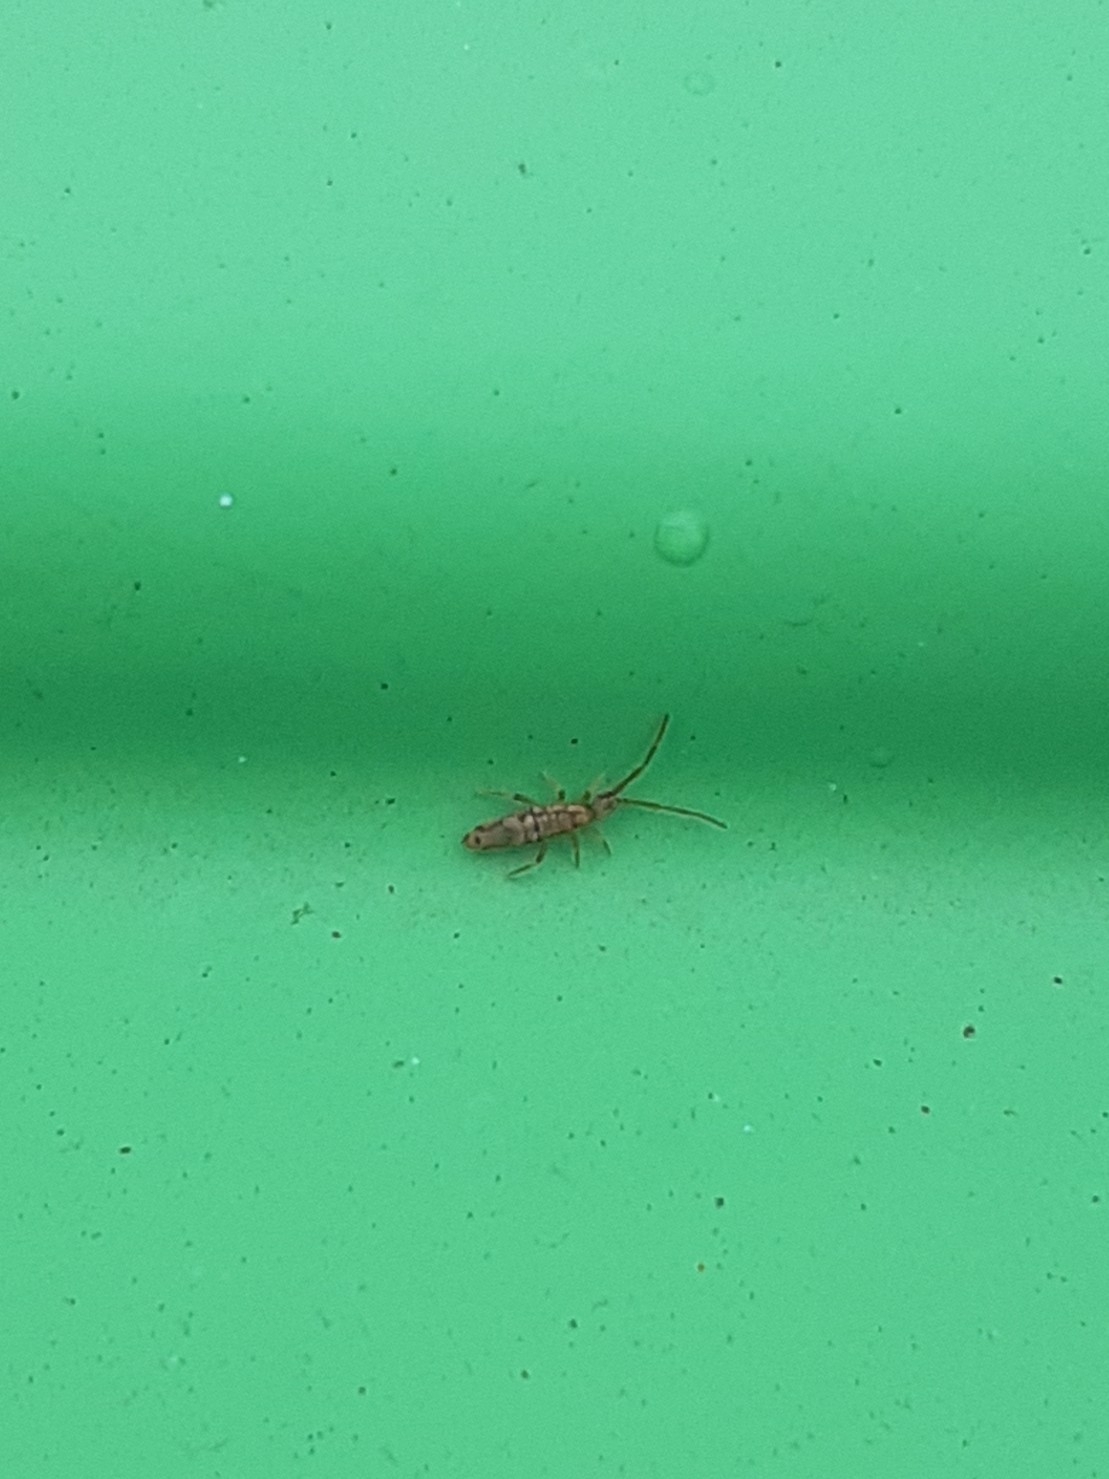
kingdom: Animalia
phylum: Arthropoda
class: Collembola
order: Entomobryomorpha
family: Entomobryidae
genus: Entomobrya
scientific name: Entomobrya intermedia
